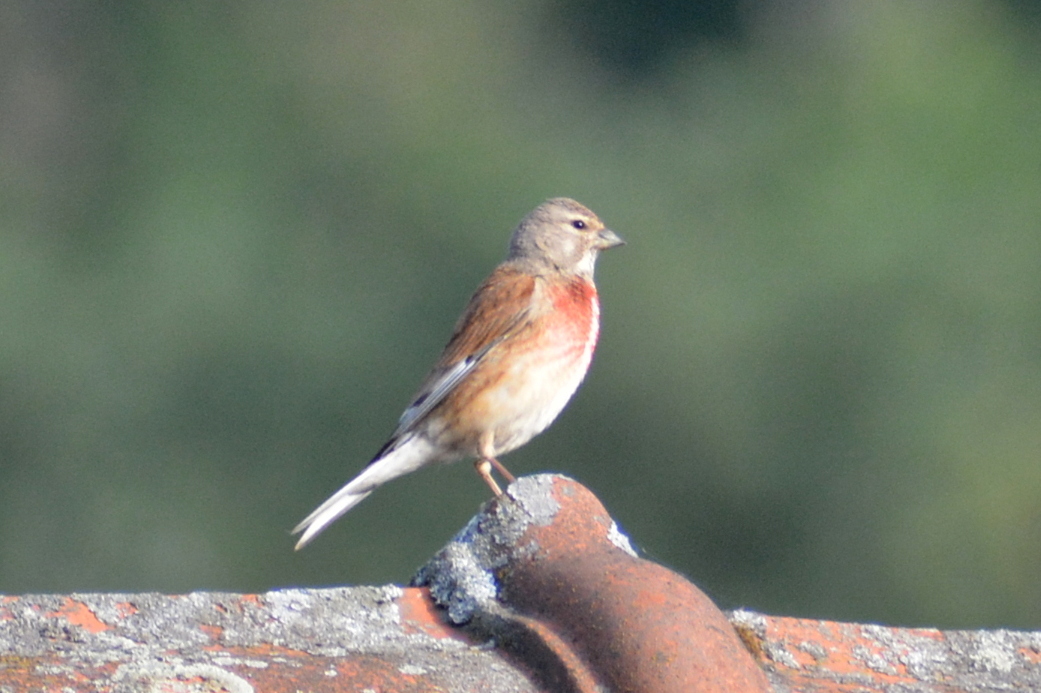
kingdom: Animalia
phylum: Chordata
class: Aves
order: Passeriformes
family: Fringillidae
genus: Linaria
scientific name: Linaria cannabina
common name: Common linnet
